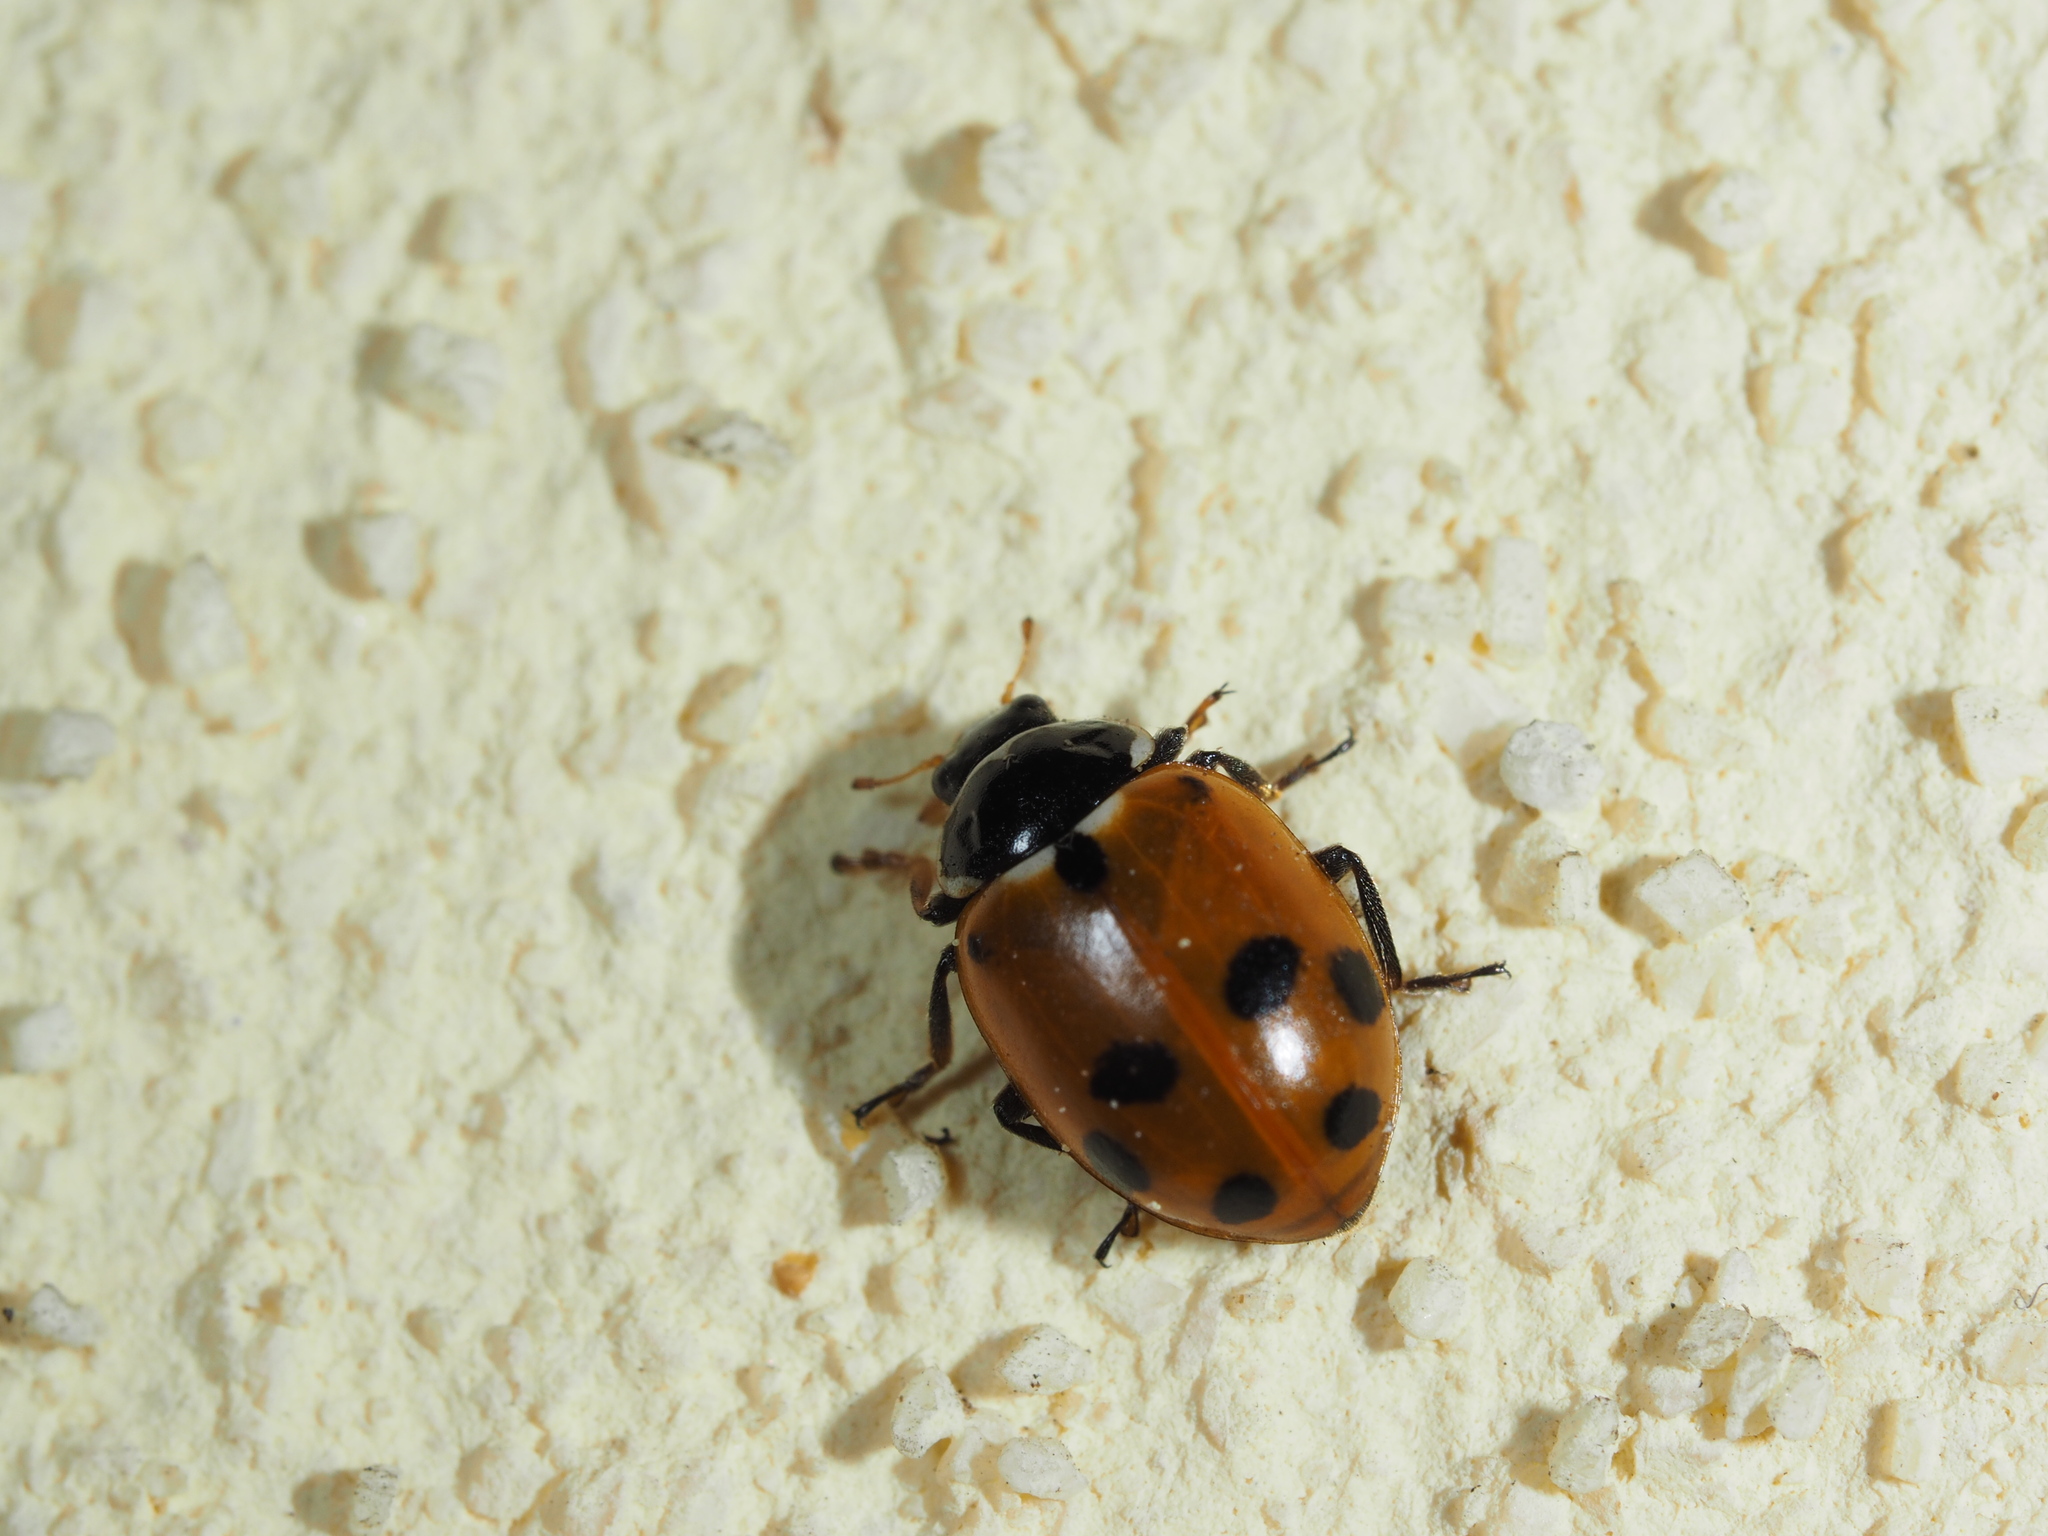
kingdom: Animalia
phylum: Arthropoda
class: Insecta
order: Coleoptera
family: Coccinellidae
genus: Hippodamia
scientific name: Hippodamia variegata
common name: Ladybird beetle
